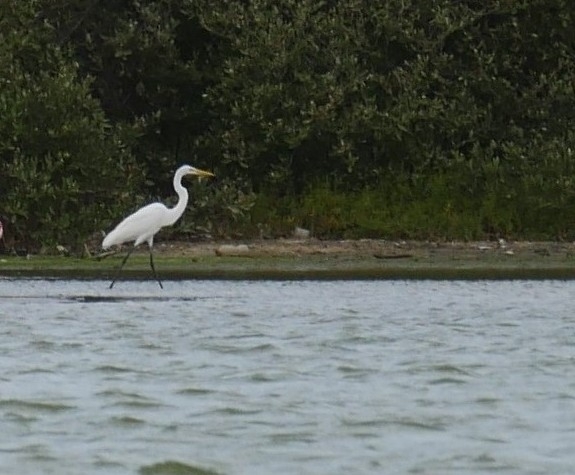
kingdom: Animalia
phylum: Chordata
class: Aves
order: Pelecaniformes
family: Ardeidae
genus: Ardea
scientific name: Ardea alba
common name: Great egret
